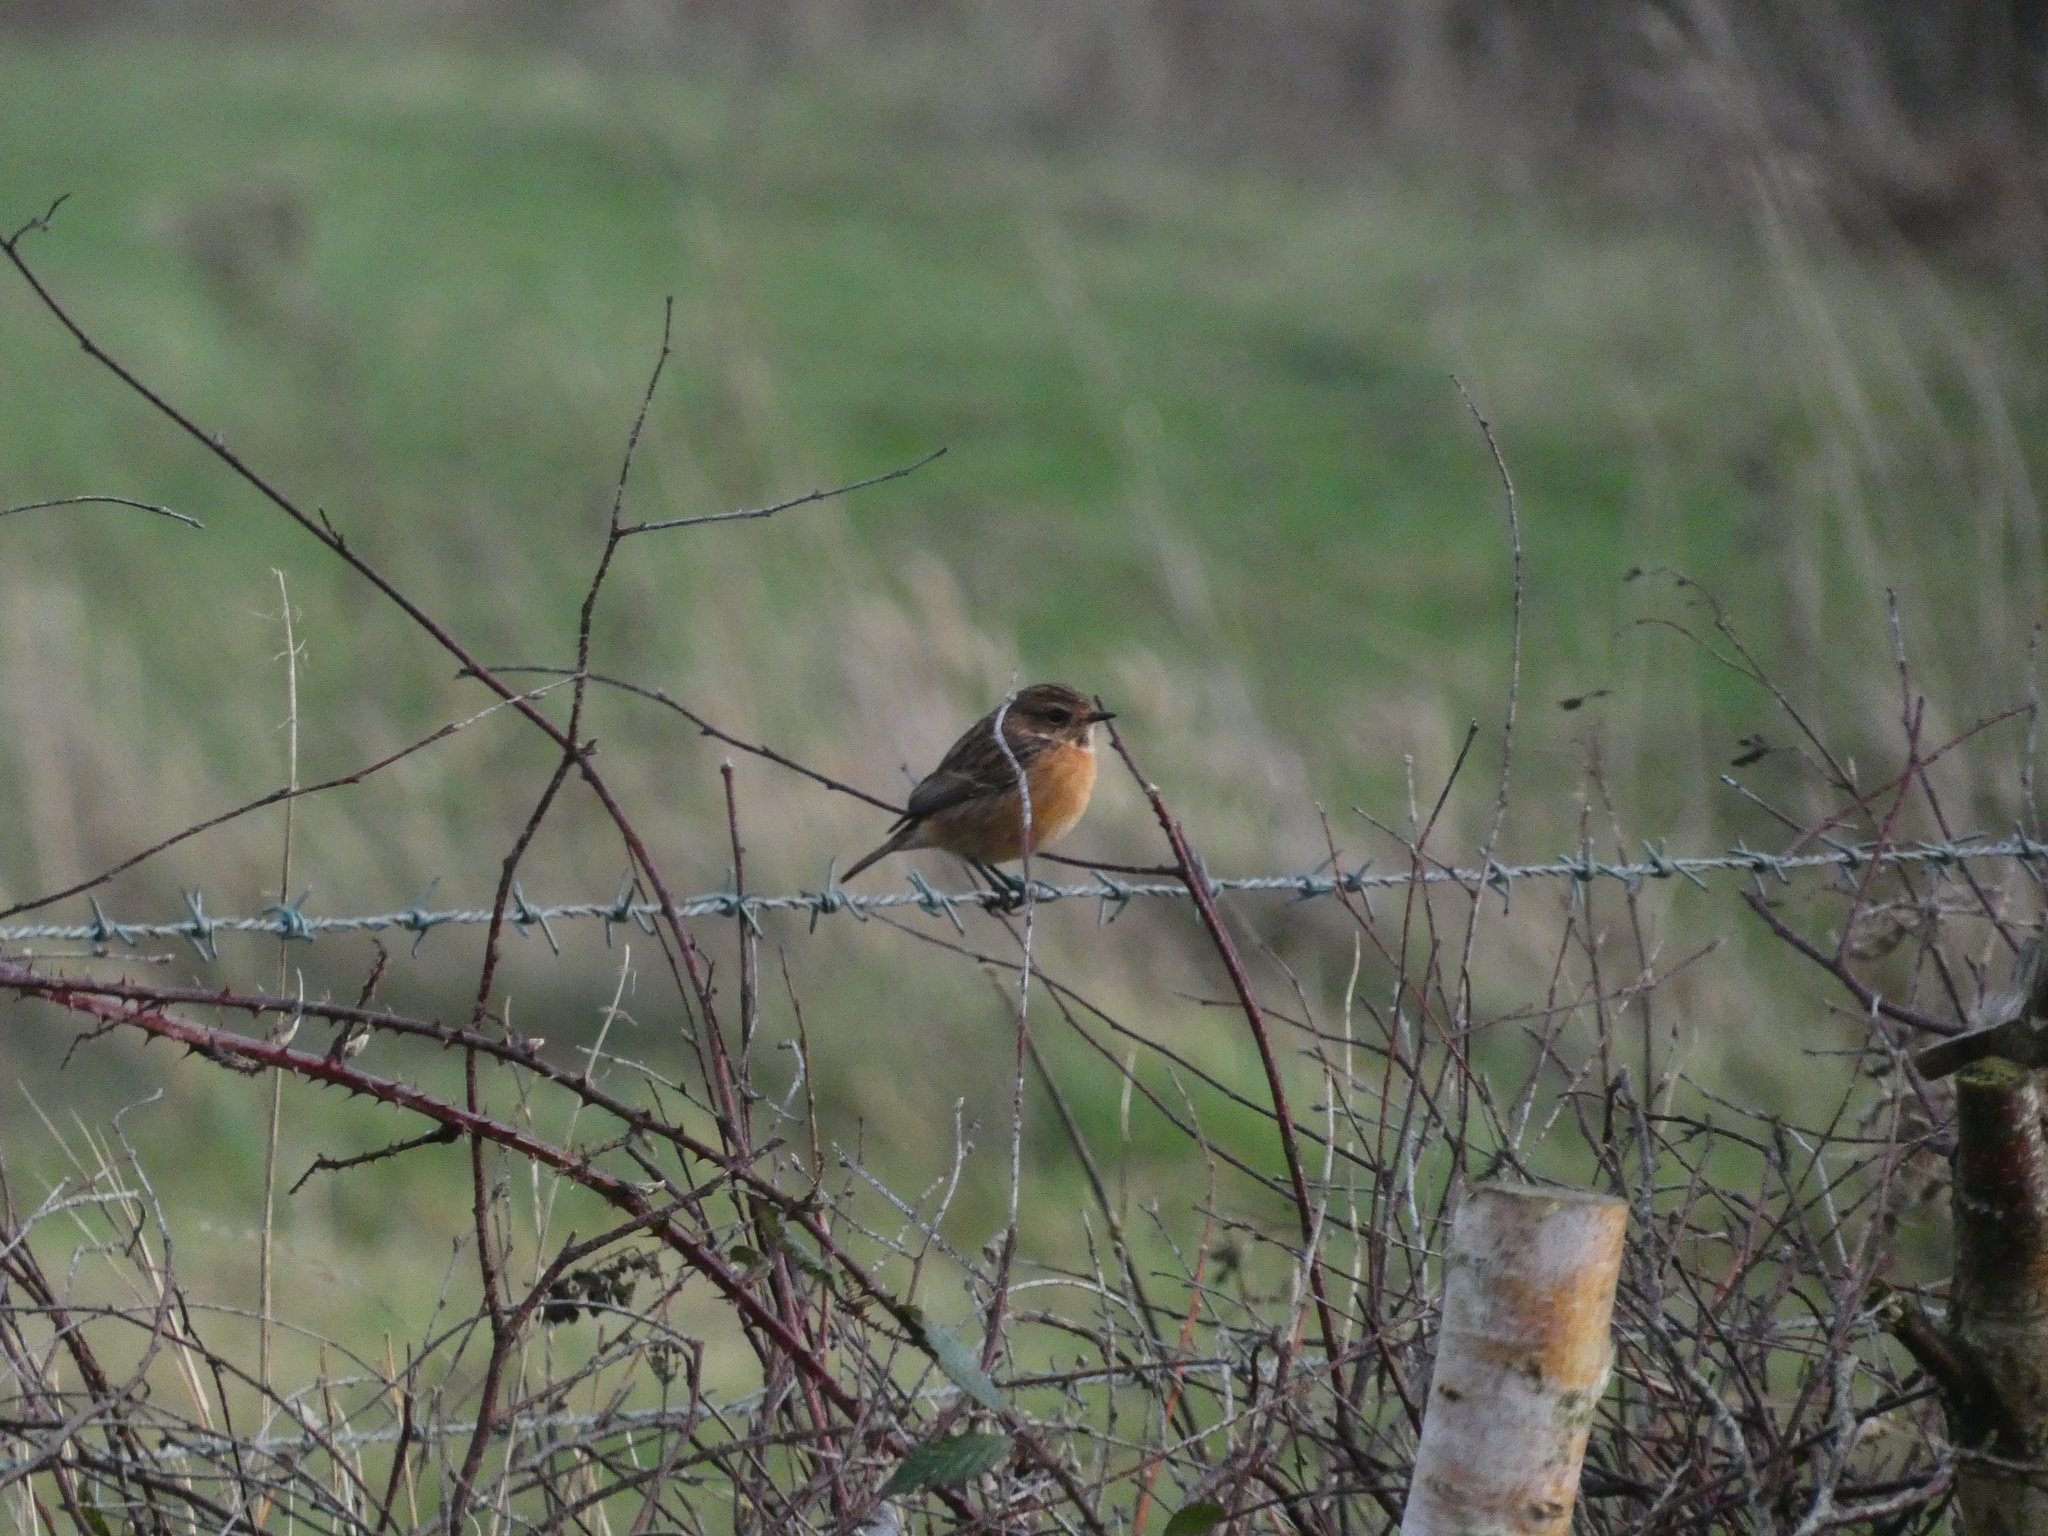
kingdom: Animalia
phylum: Chordata
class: Aves
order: Passeriformes
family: Muscicapidae
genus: Saxicola
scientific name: Saxicola rubicola
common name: European stonechat
